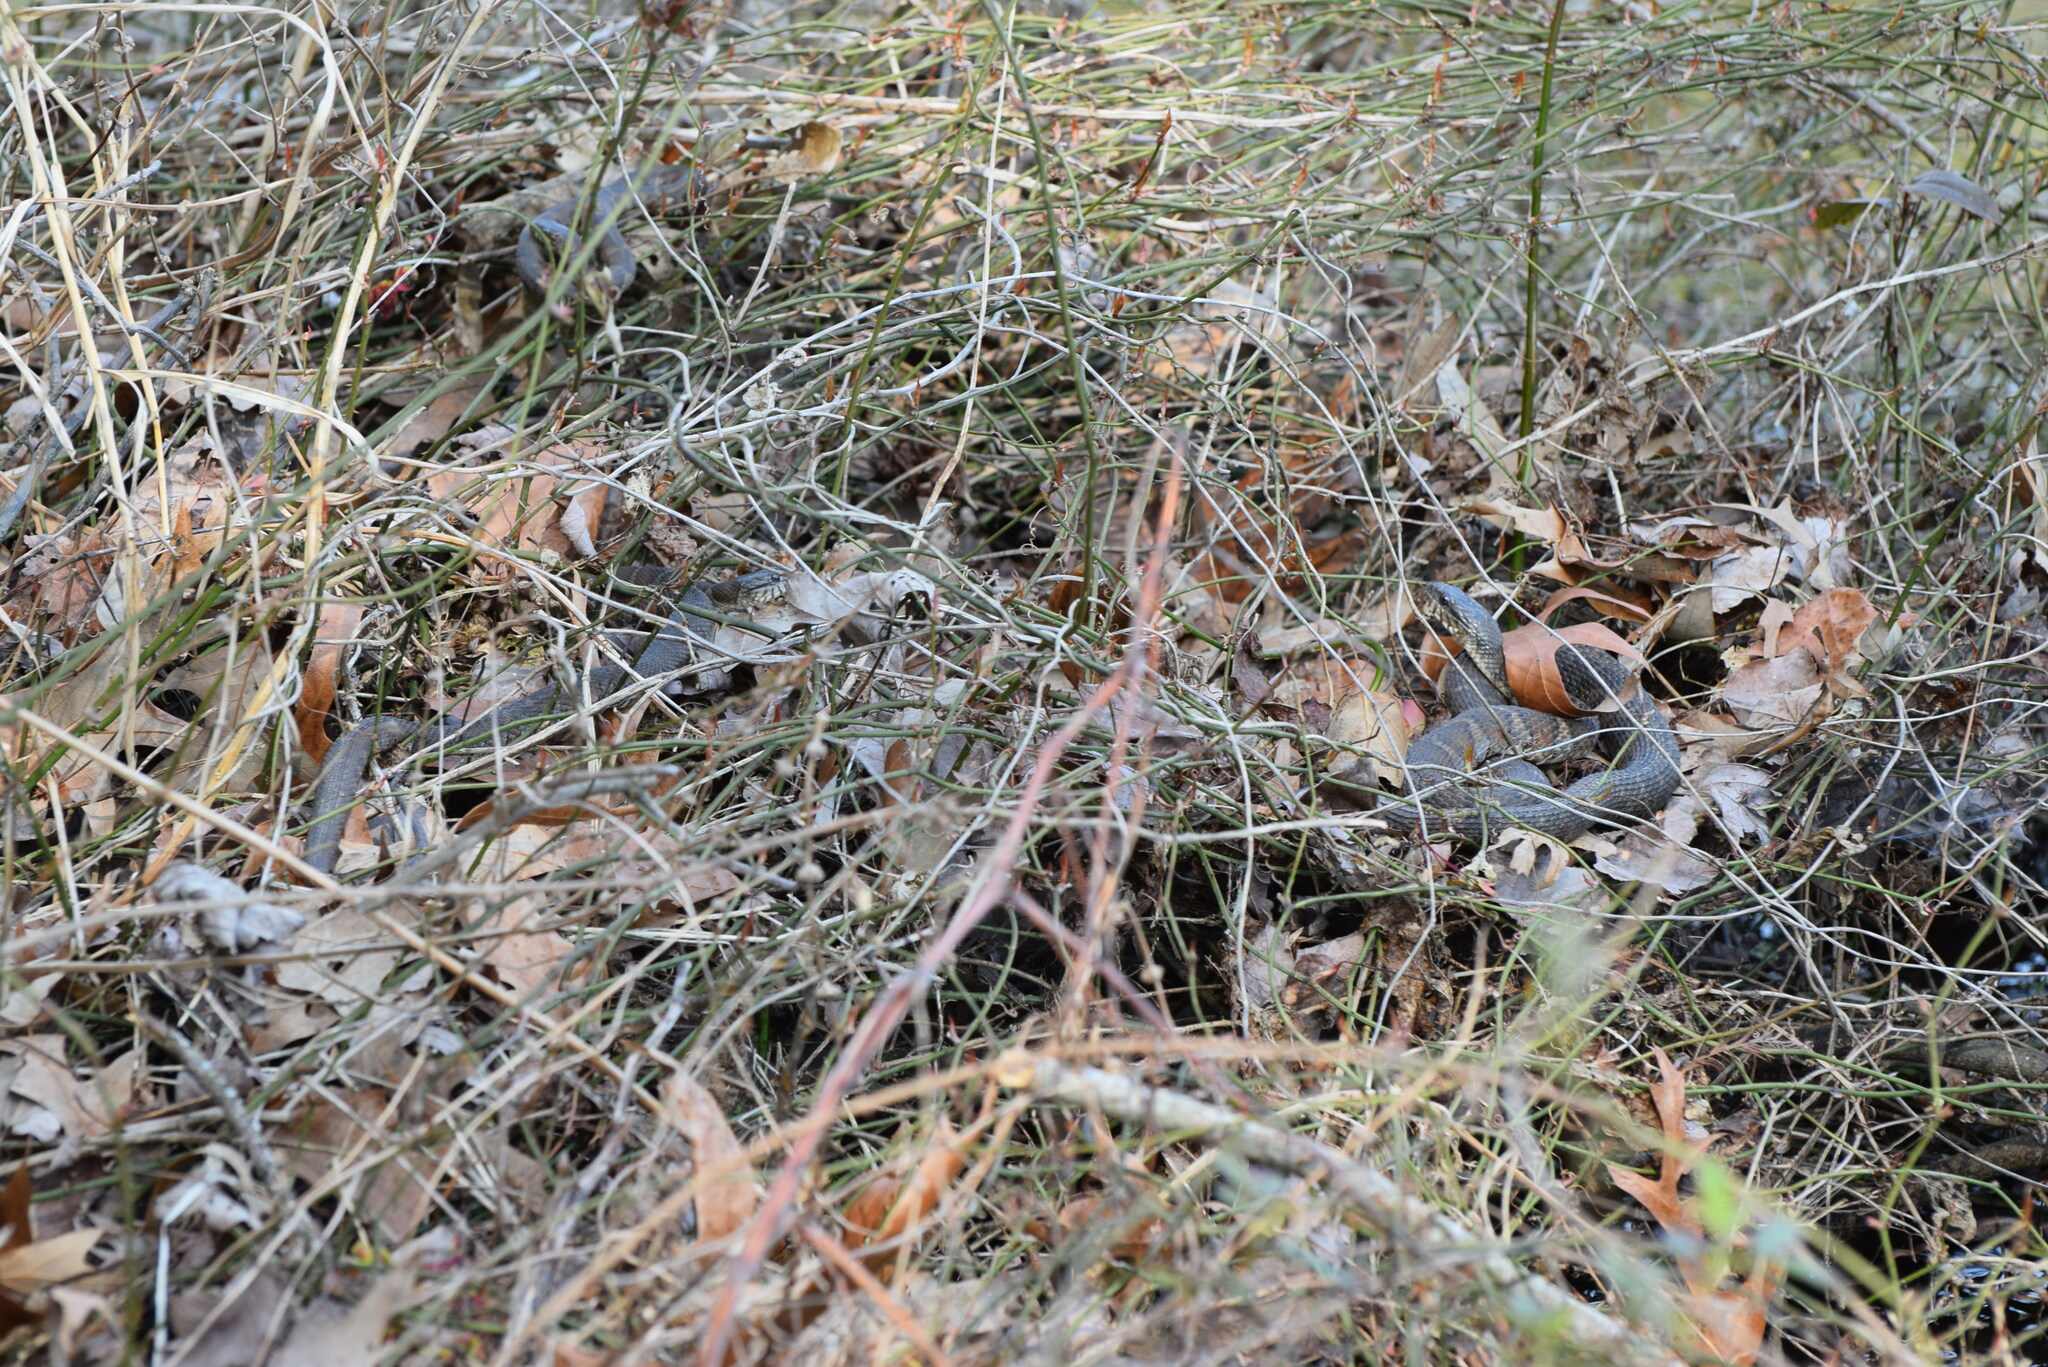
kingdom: Animalia
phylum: Chordata
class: Squamata
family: Colubridae
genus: Nerodia
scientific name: Nerodia sipedon
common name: Northern water snake
